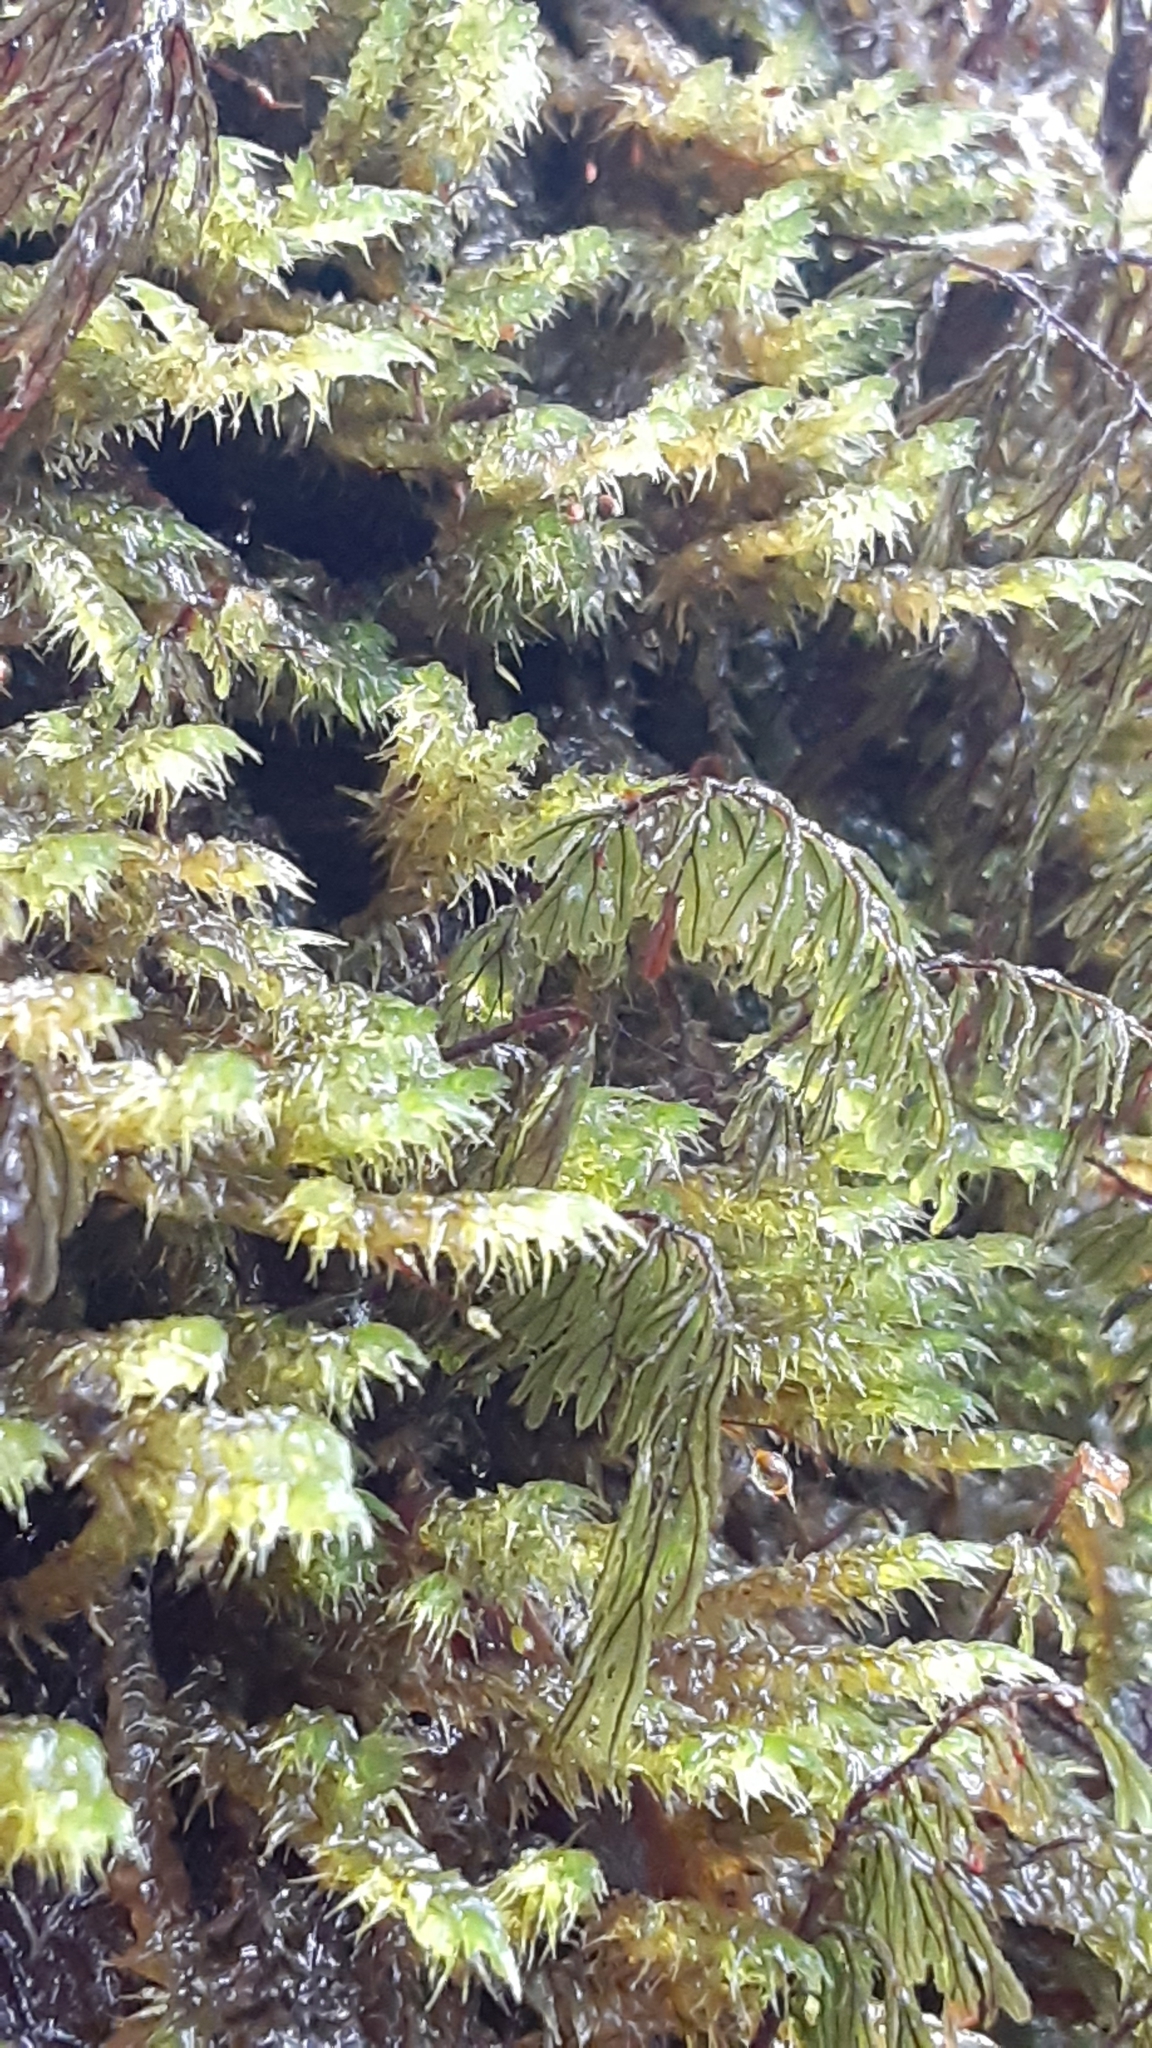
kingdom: Plantae
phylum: Tracheophyta
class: Polypodiopsida
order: Hymenophyllales
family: Hymenophyllaceae
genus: Hymenophyllum
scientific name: Hymenophyllum lanceolatum
